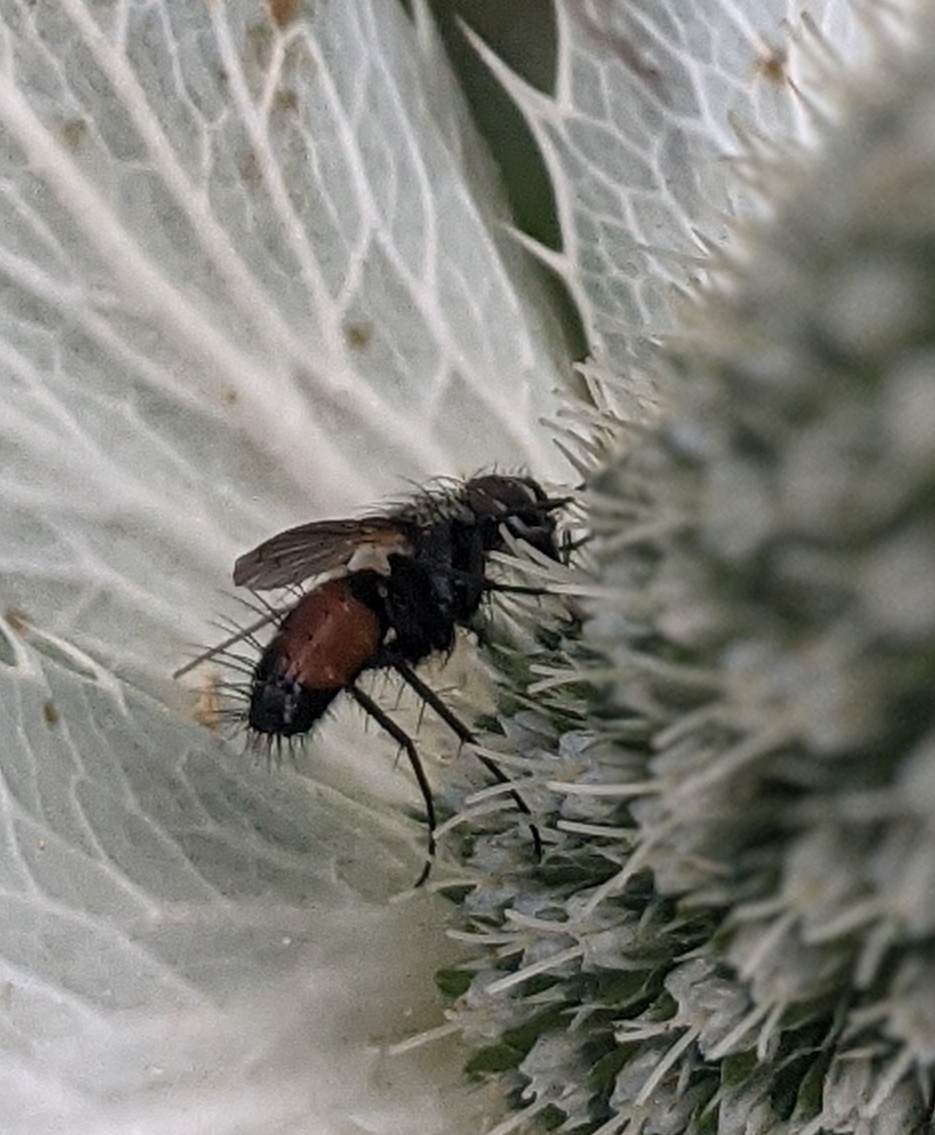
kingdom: Animalia
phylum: Arthropoda
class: Insecta
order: Diptera
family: Tachinidae
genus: Eriothrix
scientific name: Eriothrix rufomaculatus
